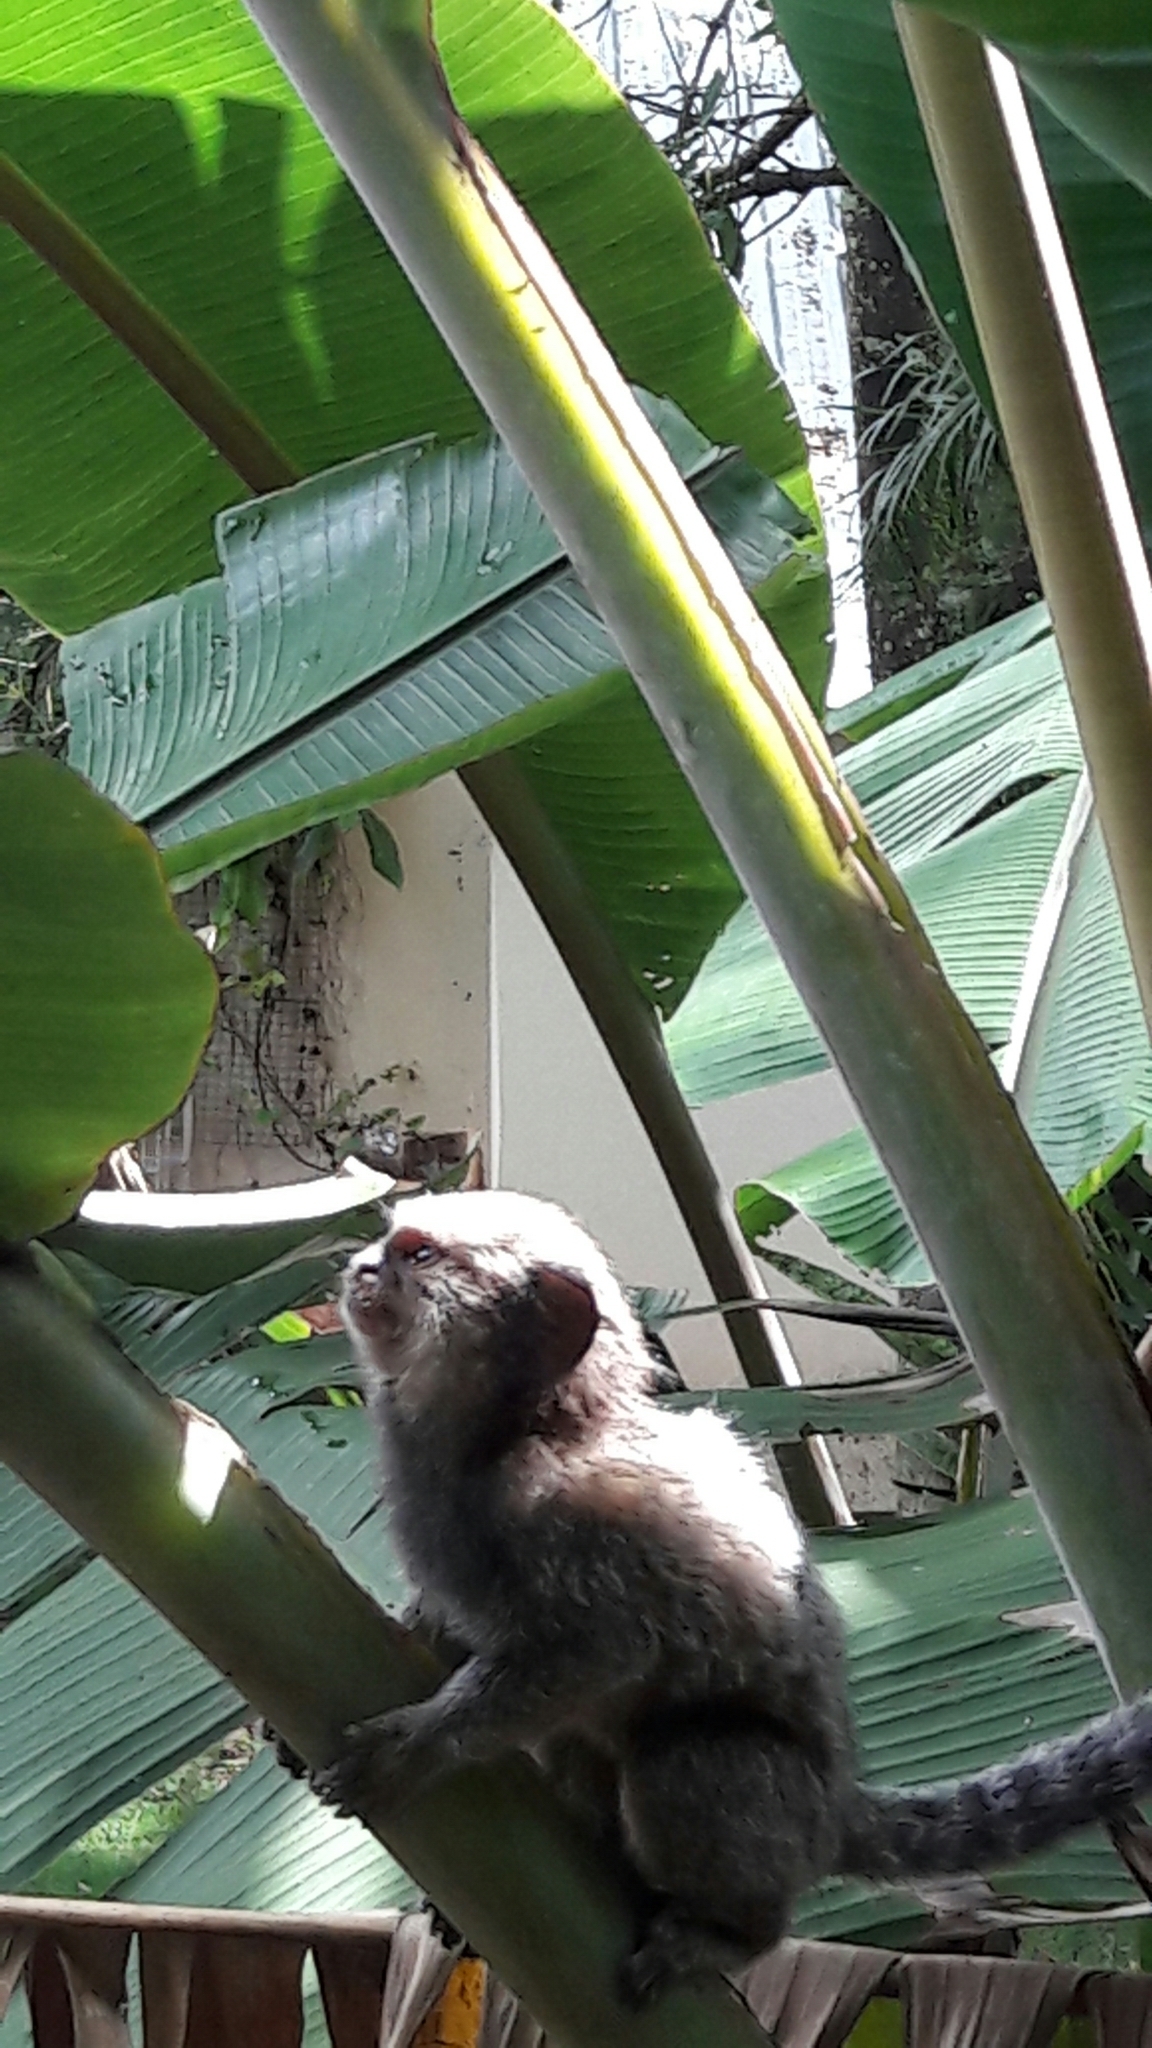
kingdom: Animalia
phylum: Chordata
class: Mammalia
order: Primates
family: Callitrichidae
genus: Callithrix
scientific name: Callithrix penicillata
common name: Black-tufted marmoset
